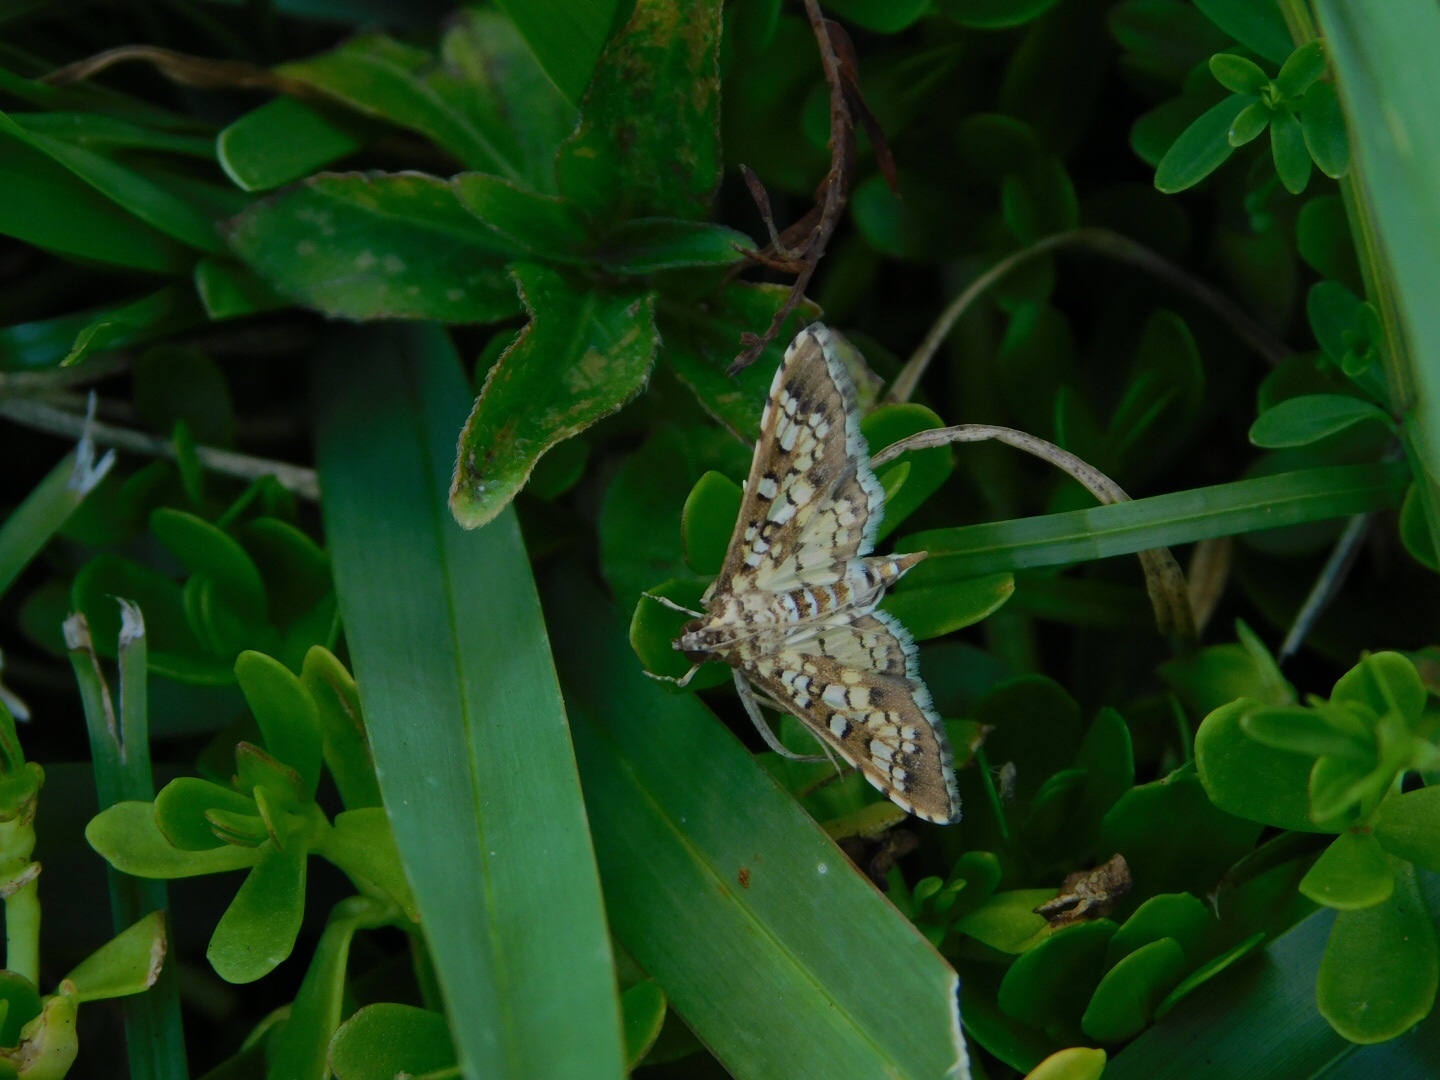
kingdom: Animalia
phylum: Arthropoda
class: Insecta
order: Lepidoptera
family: Crambidae
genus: Samea
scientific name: Samea ecclesialis
